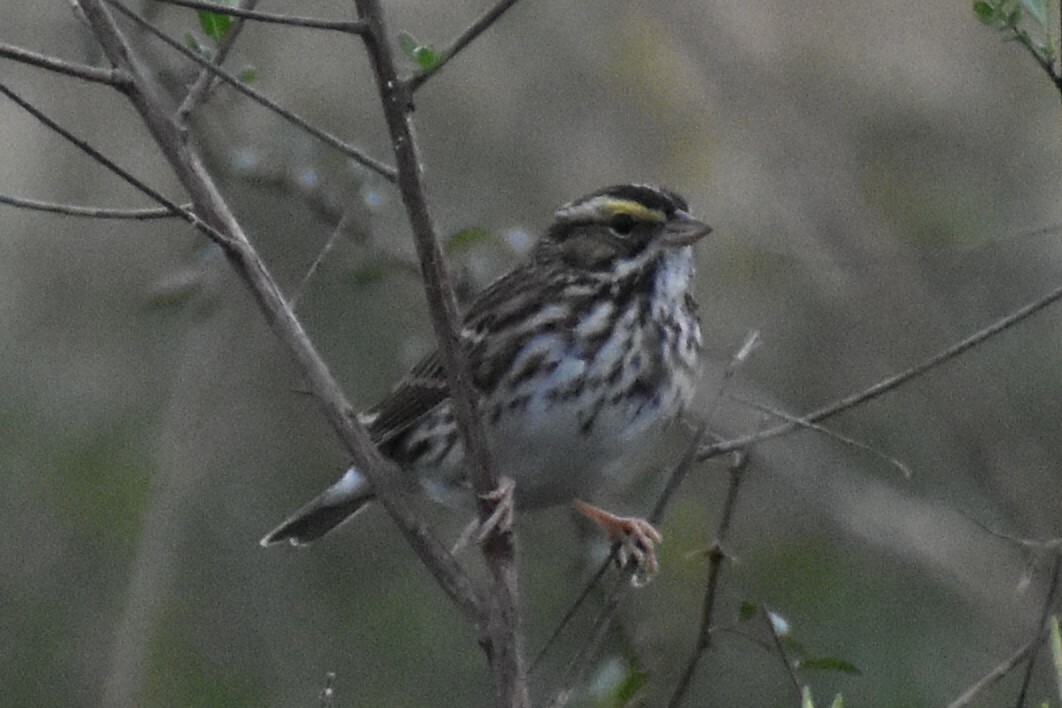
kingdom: Animalia
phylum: Chordata
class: Aves
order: Passeriformes
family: Passerellidae
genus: Passerculus
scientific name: Passerculus sandwichensis
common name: Savannah sparrow
